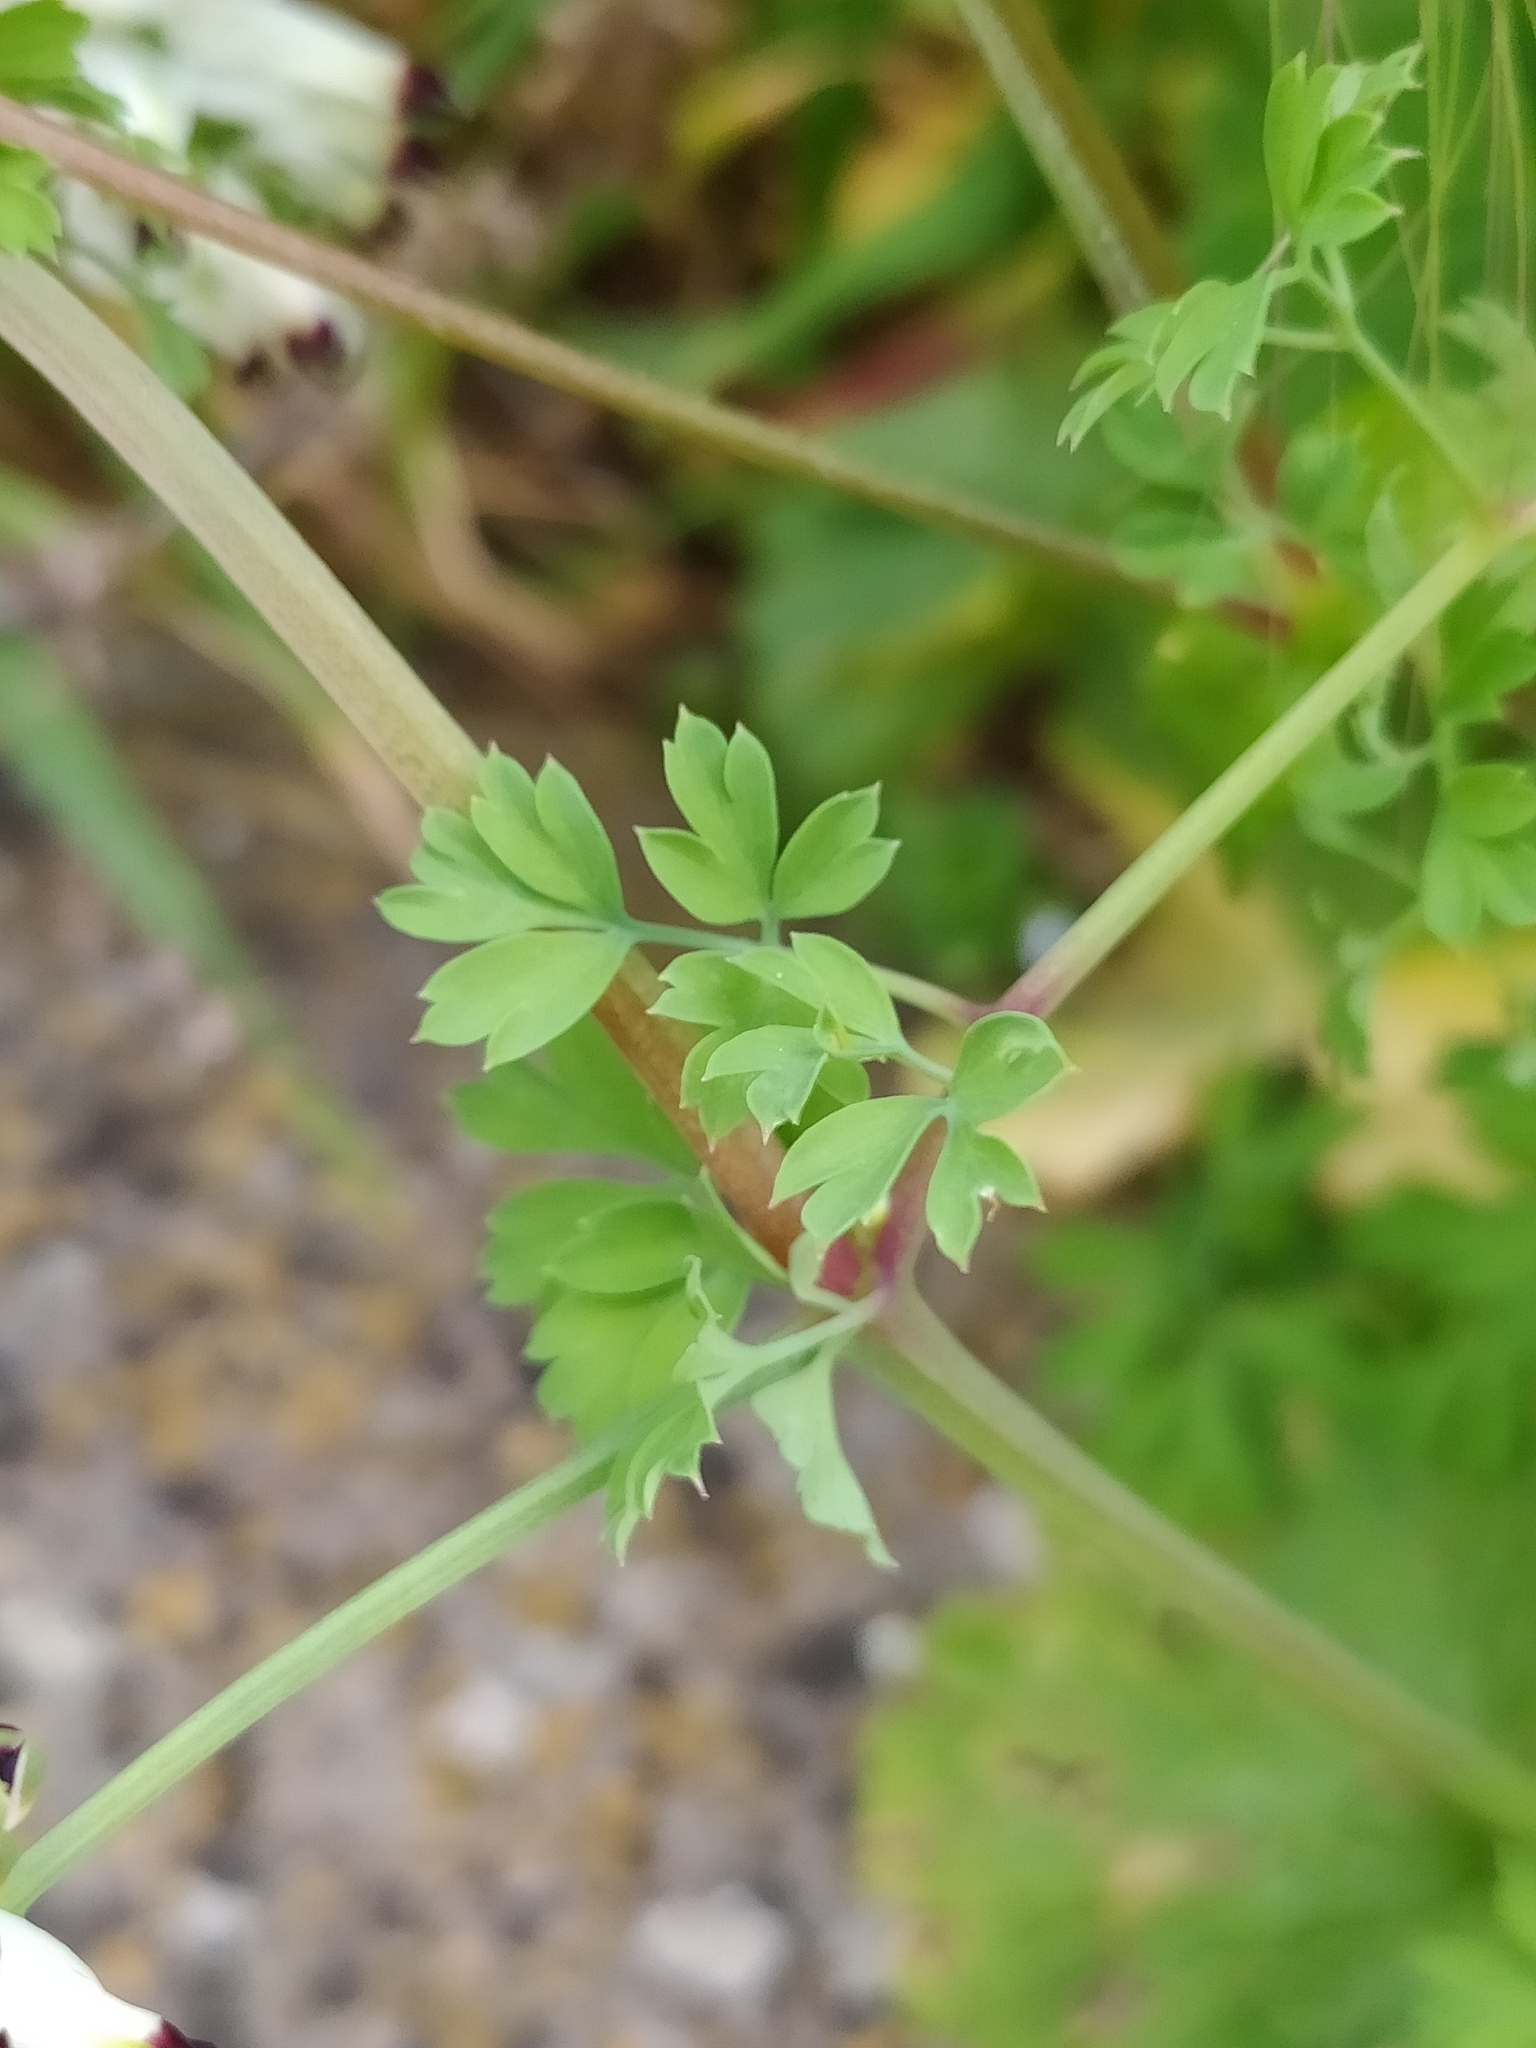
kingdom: Plantae
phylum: Tracheophyta
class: Magnoliopsida
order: Ranunculales
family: Papaveraceae
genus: Fumaria
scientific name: Fumaria capreolata
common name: White ramping-fumitory
